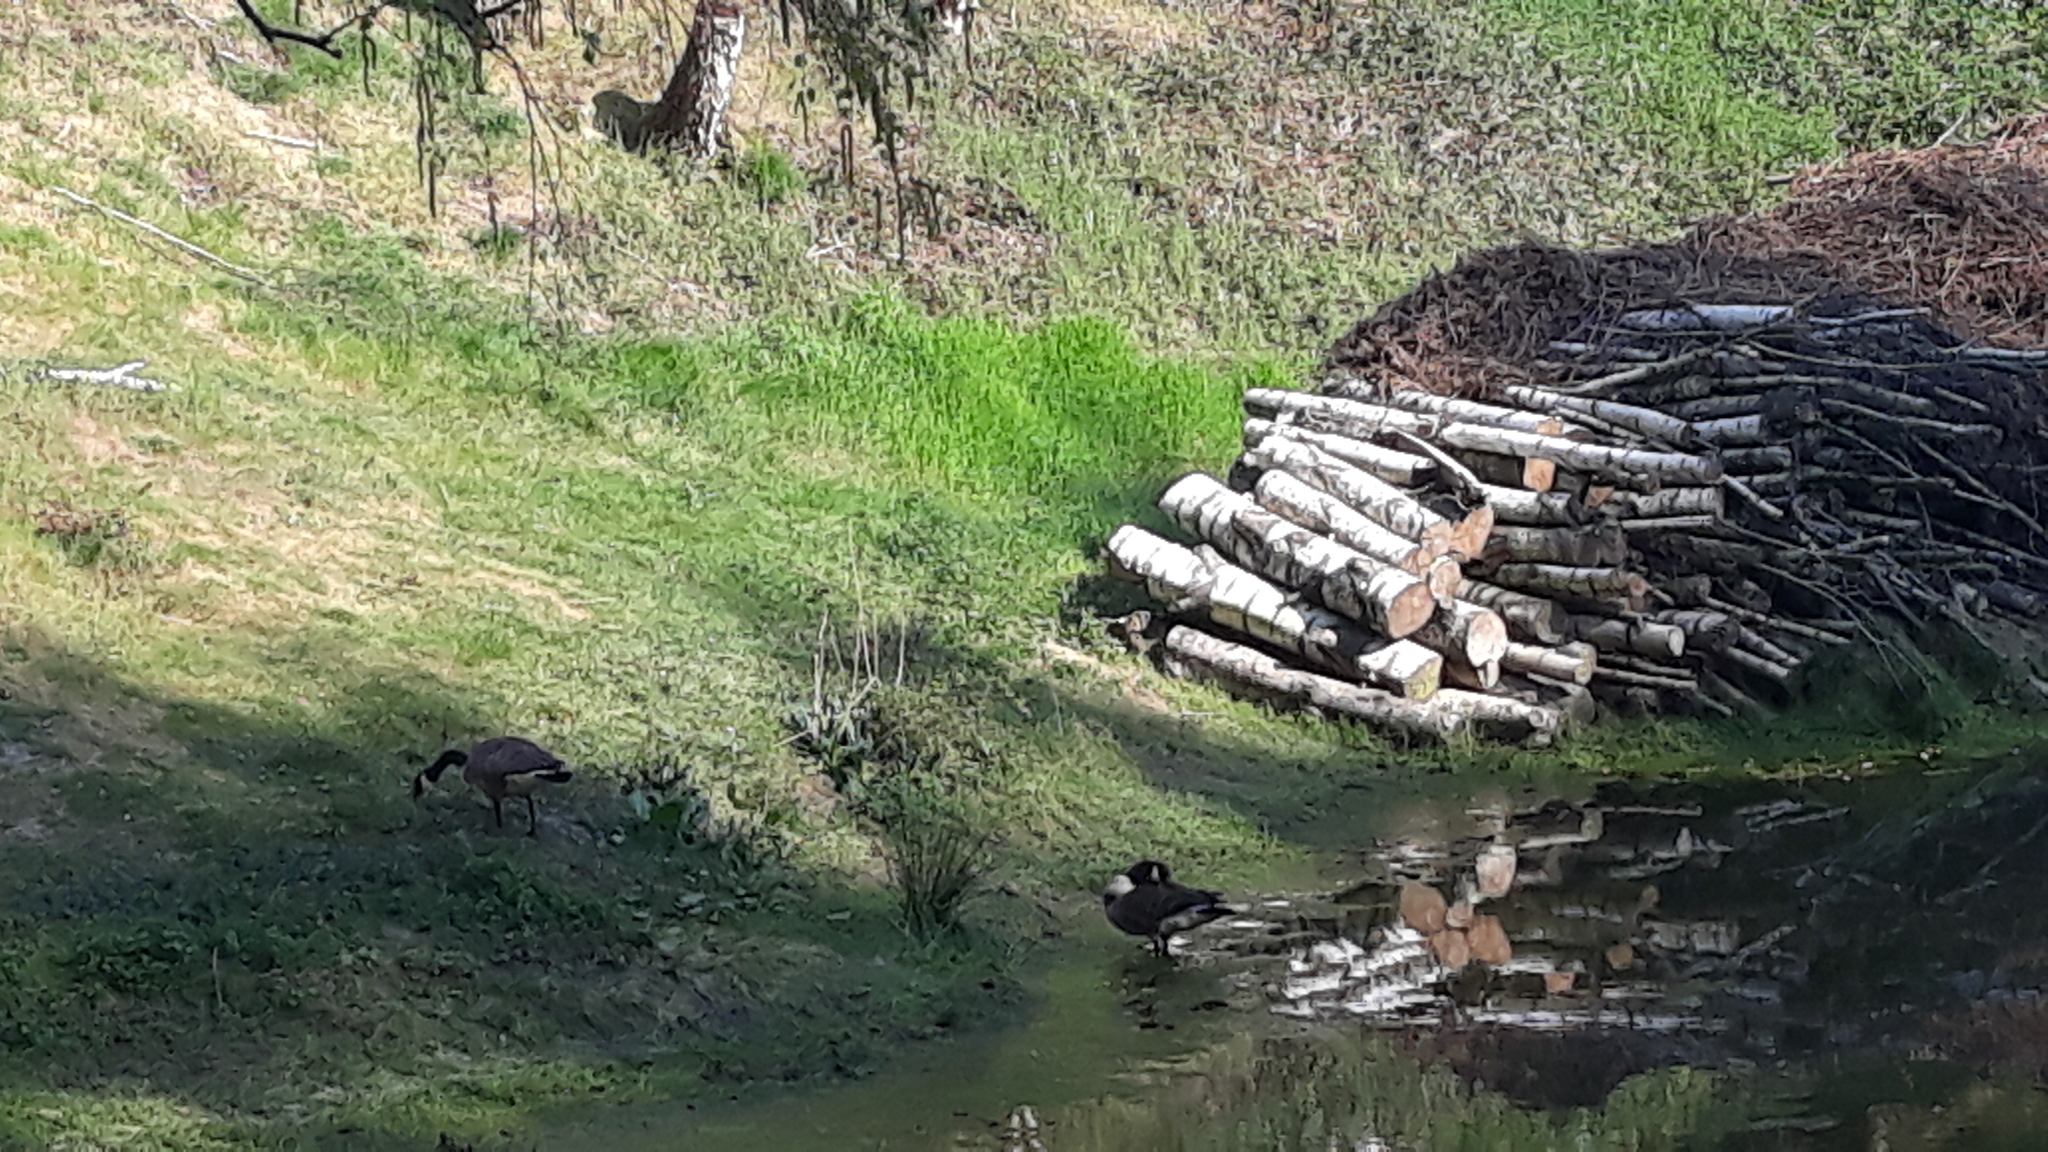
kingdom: Animalia
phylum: Chordata
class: Aves
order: Anseriformes
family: Anatidae
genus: Branta
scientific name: Branta canadensis
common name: Canada goose
